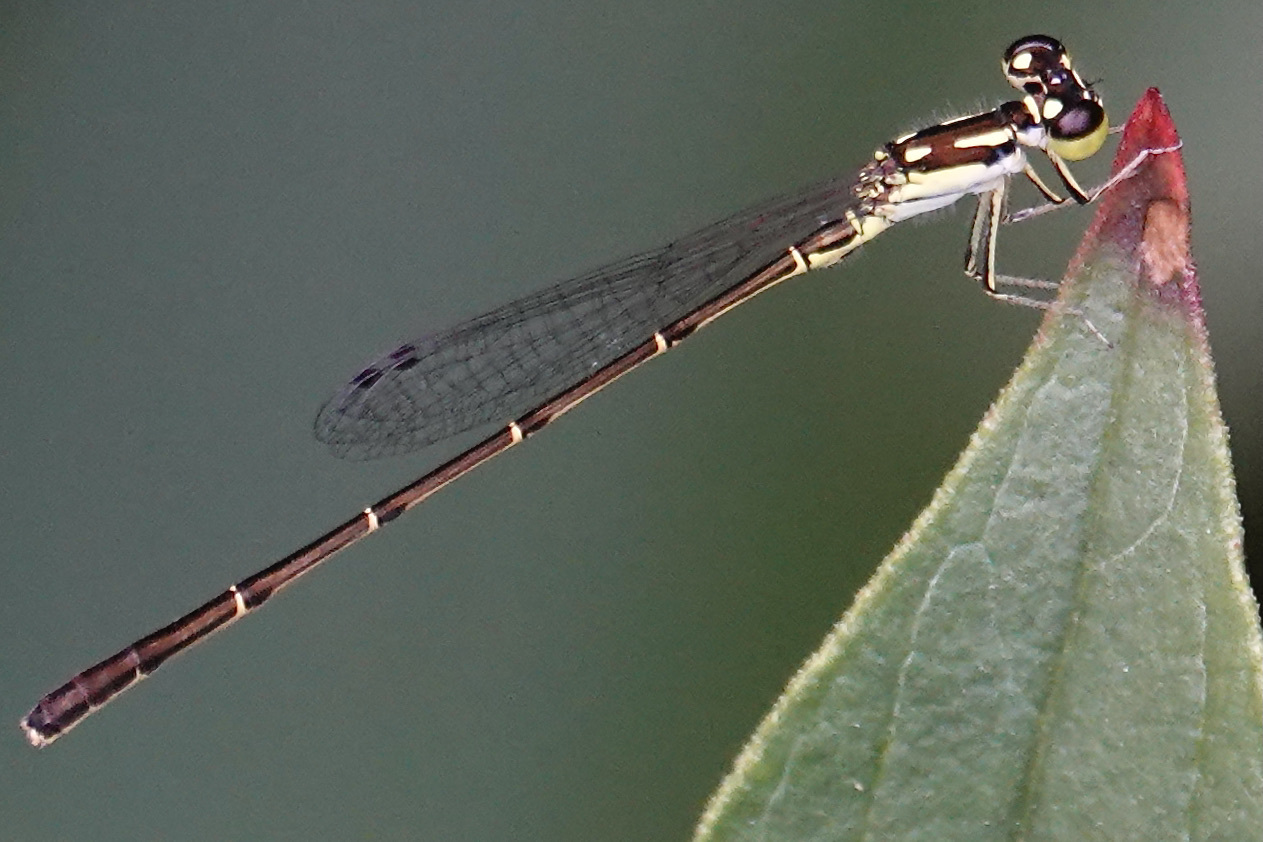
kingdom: Animalia
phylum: Arthropoda
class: Insecta
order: Odonata
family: Coenagrionidae
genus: Ischnura
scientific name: Ischnura posita
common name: Fragile forktail
